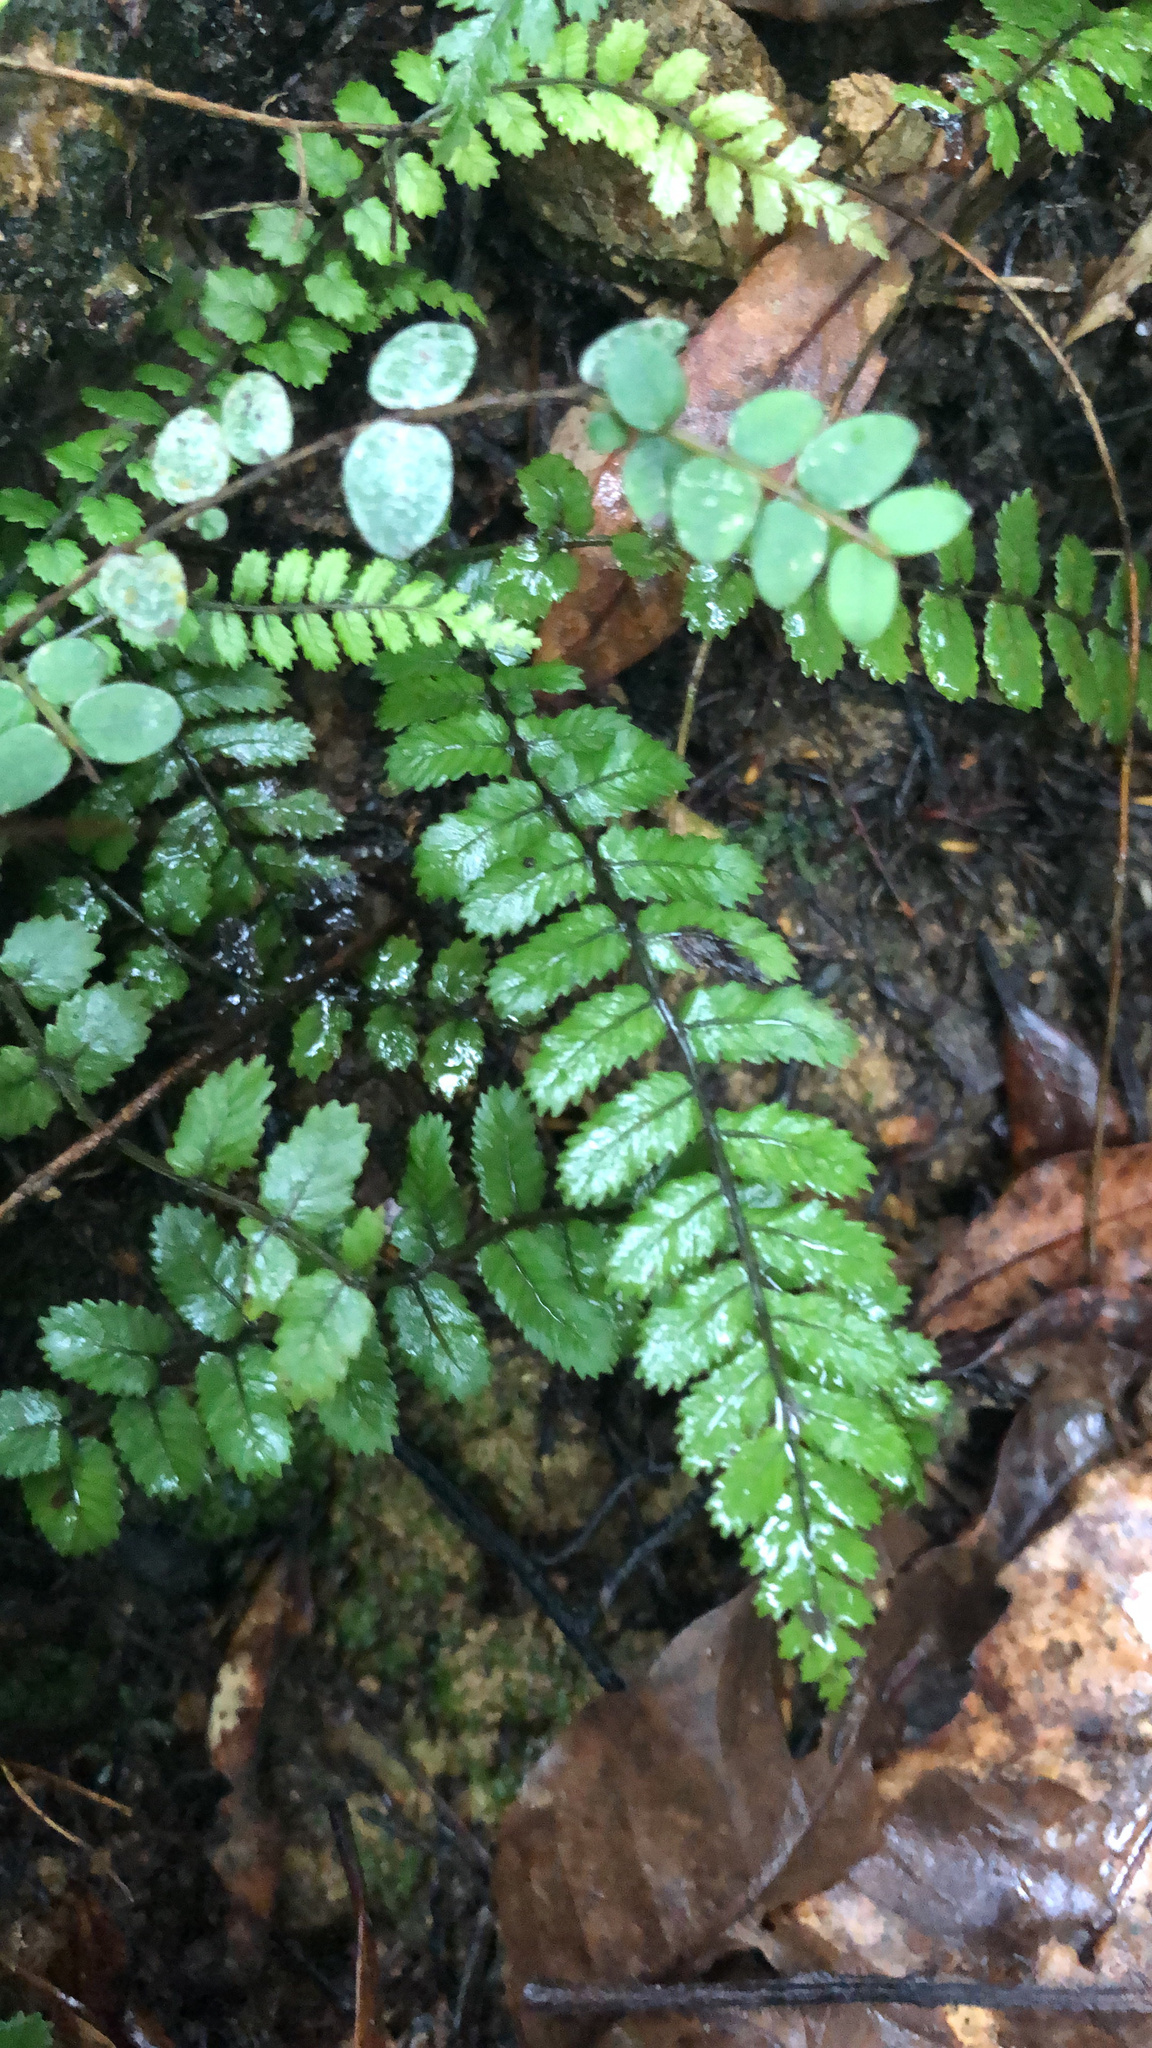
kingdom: Plantae
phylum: Tracheophyta
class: Polypodiopsida
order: Polypodiales
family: Blechnaceae
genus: Icarus
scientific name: Icarus filiformis
